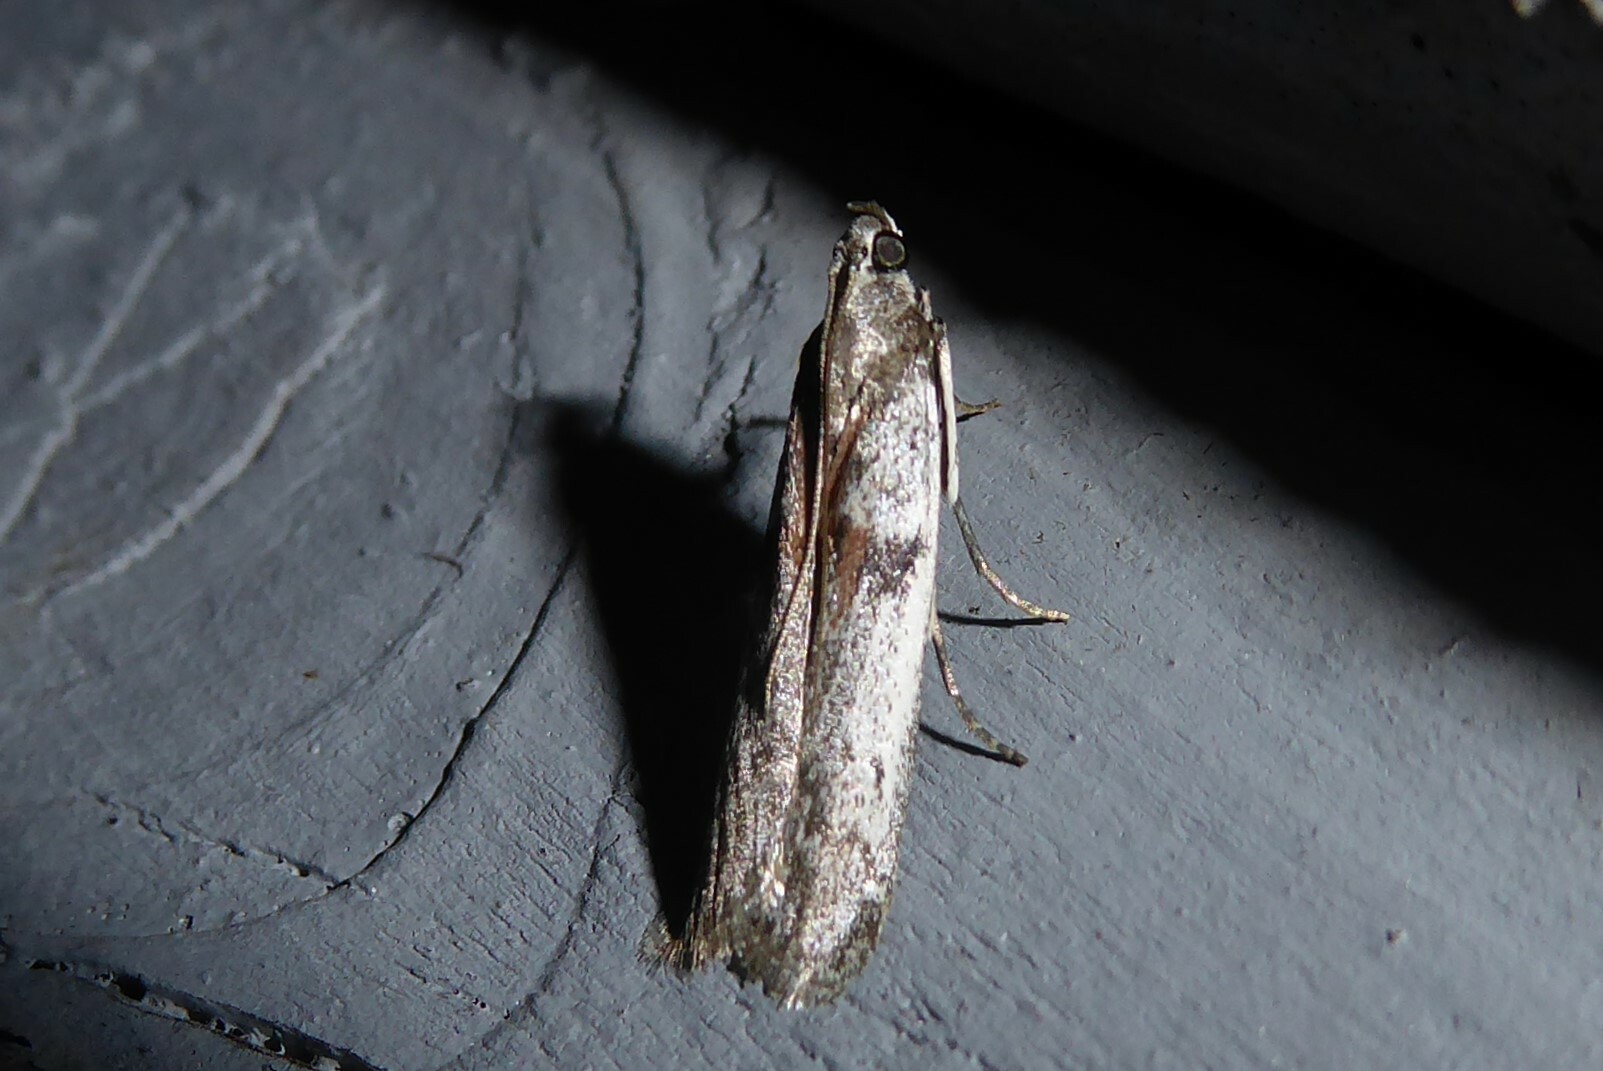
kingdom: Animalia
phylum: Arthropoda
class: Insecta
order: Lepidoptera
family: Pyralidae
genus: Patagoniodes
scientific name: Patagoniodes farinaria
